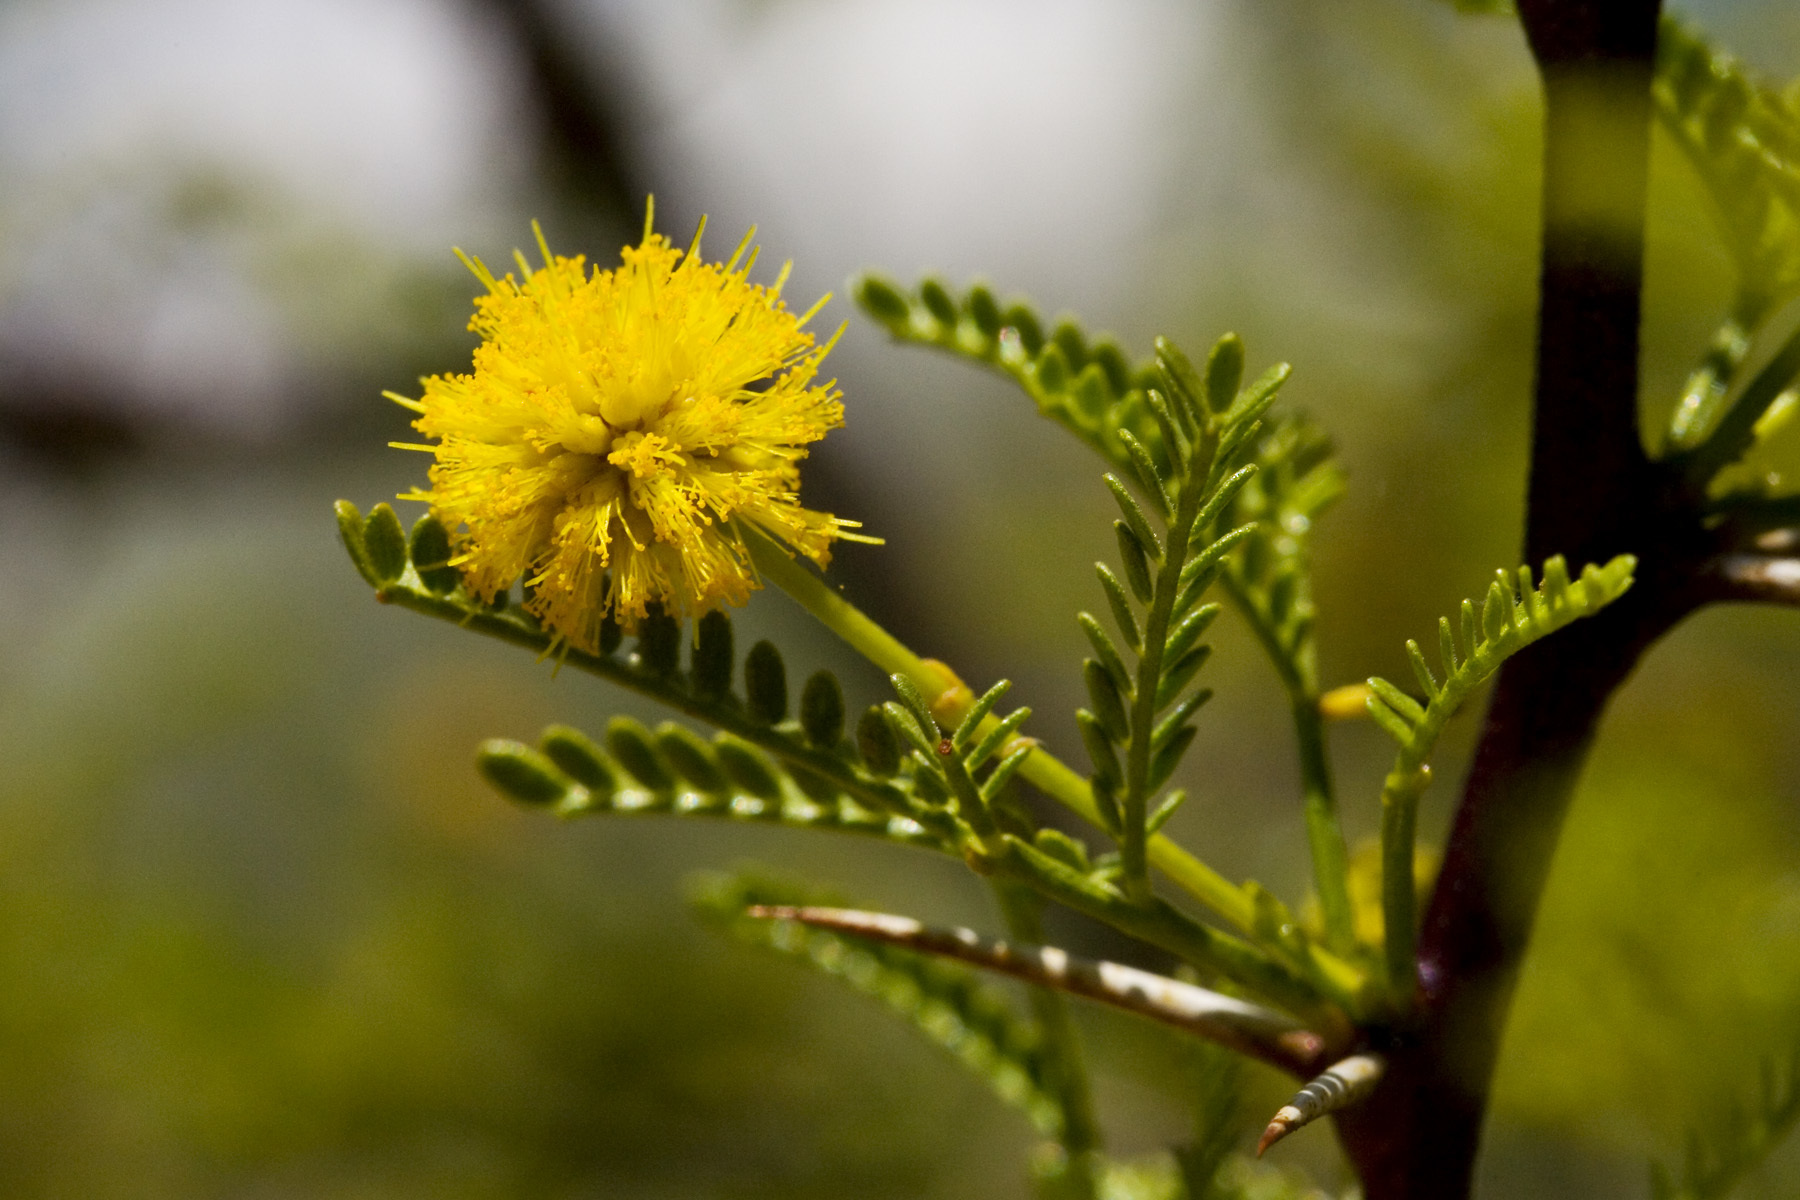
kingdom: Plantae
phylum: Tracheophyta
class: Magnoliopsida
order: Fabales
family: Fabaceae
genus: Vachellia
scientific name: Vachellia vernicosa
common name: Viscid acacia
